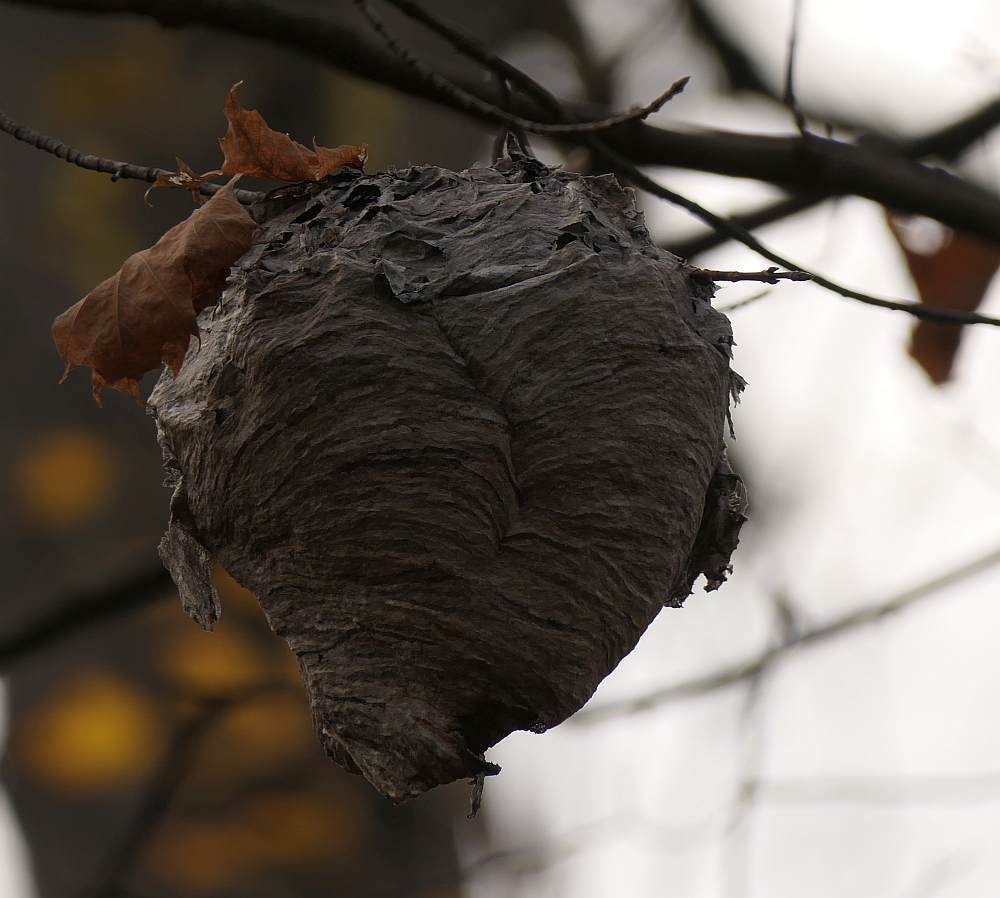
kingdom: Animalia
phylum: Arthropoda
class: Insecta
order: Hymenoptera
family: Vespidae
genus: Dolichovespula
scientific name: Dolichovespula
